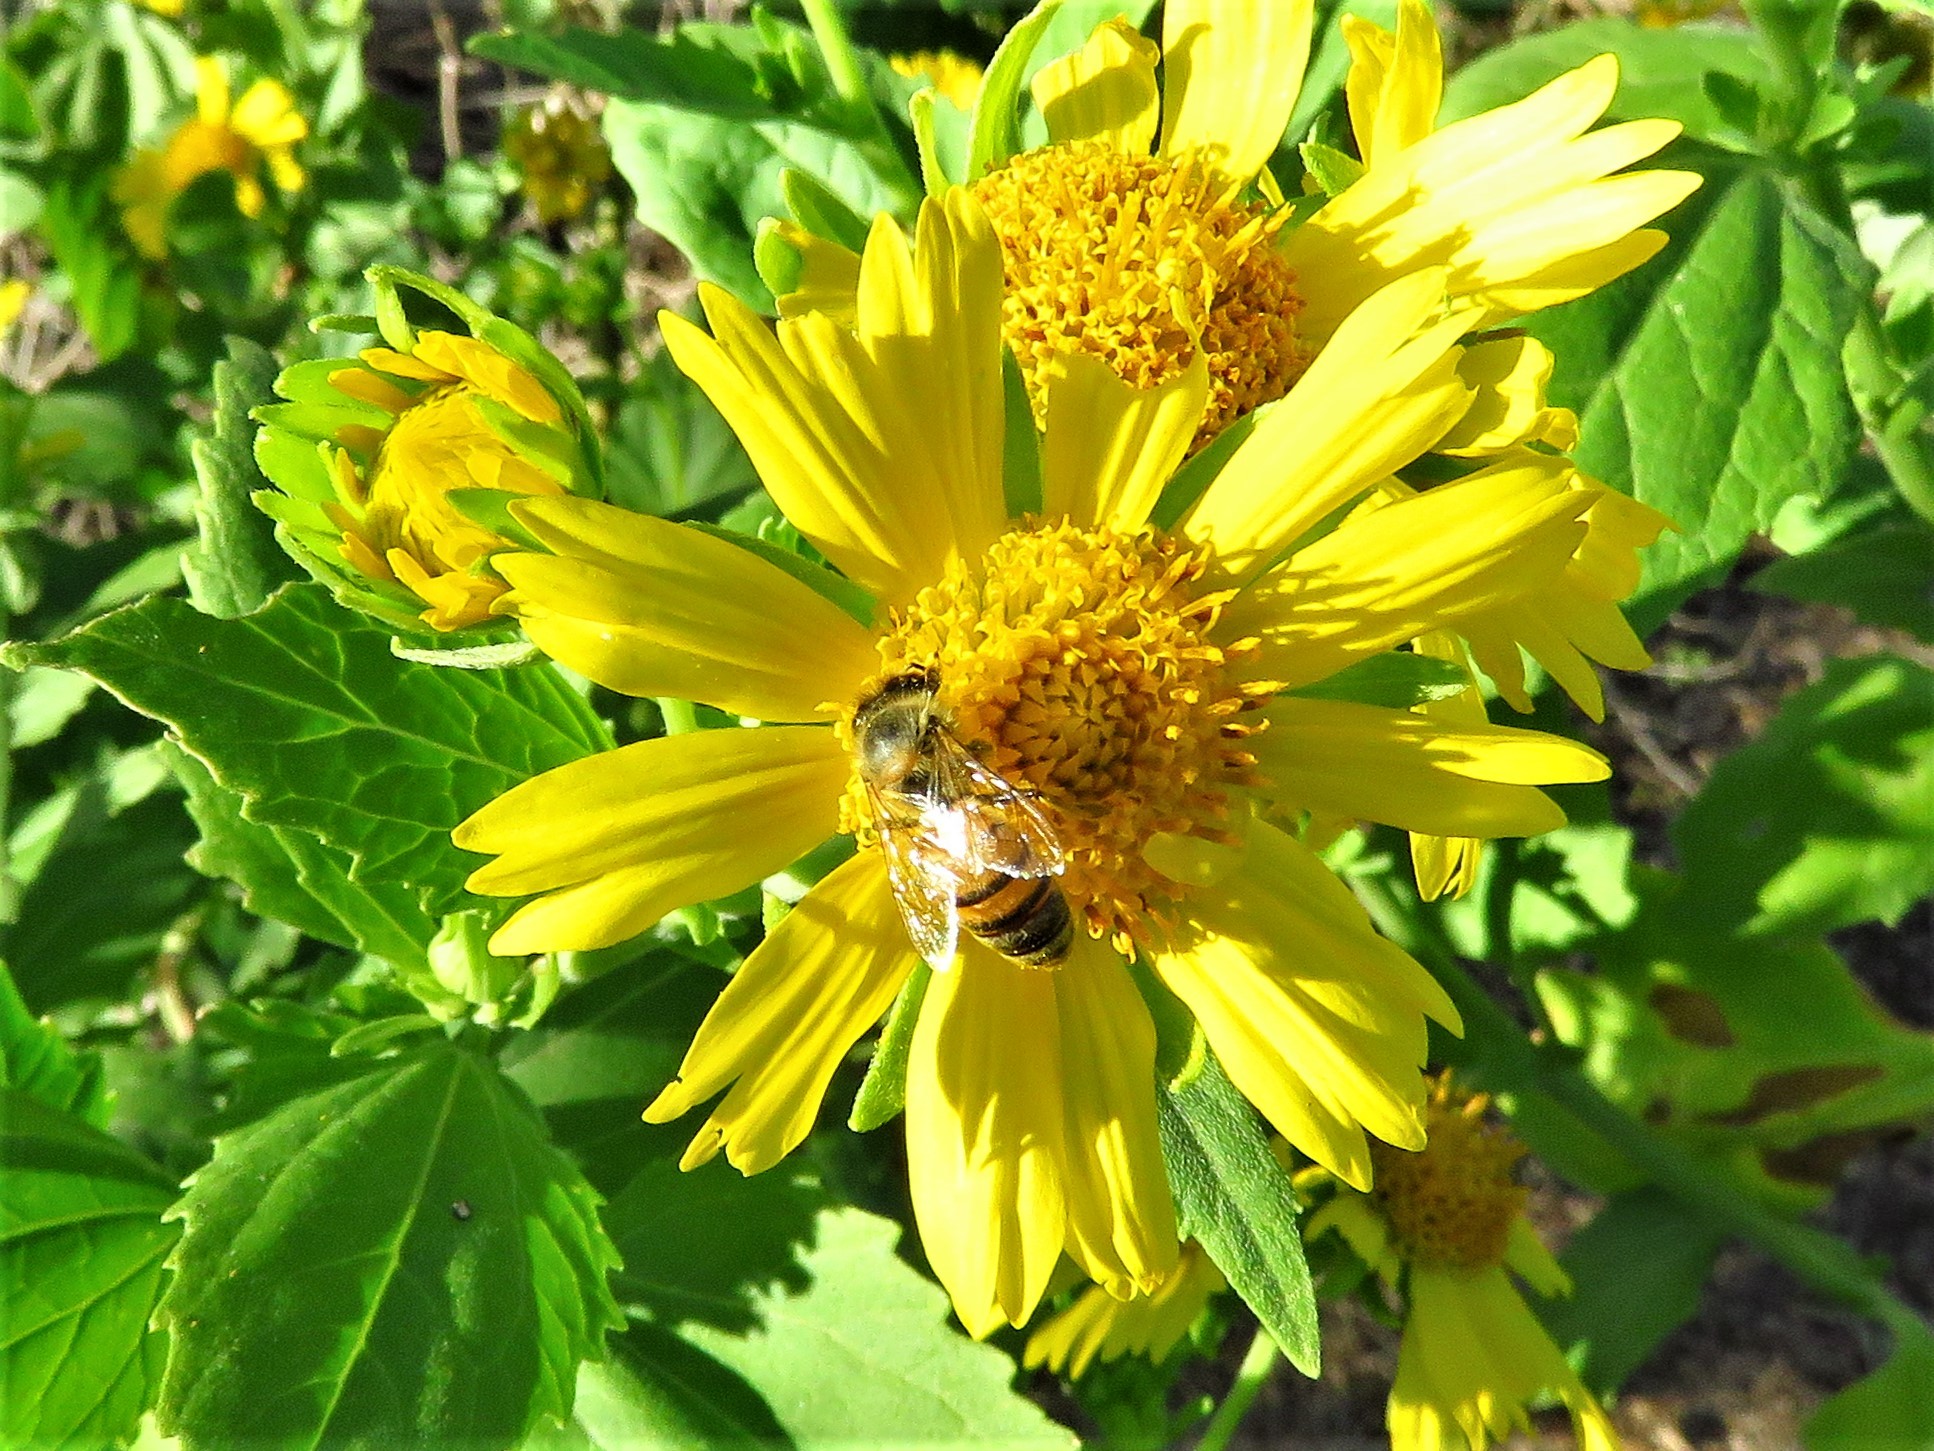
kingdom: Animalia
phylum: Arthropoda
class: Insecta
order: Hymenoptera
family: Apidae
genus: Apis
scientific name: Apis mellifera
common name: Honey bee
